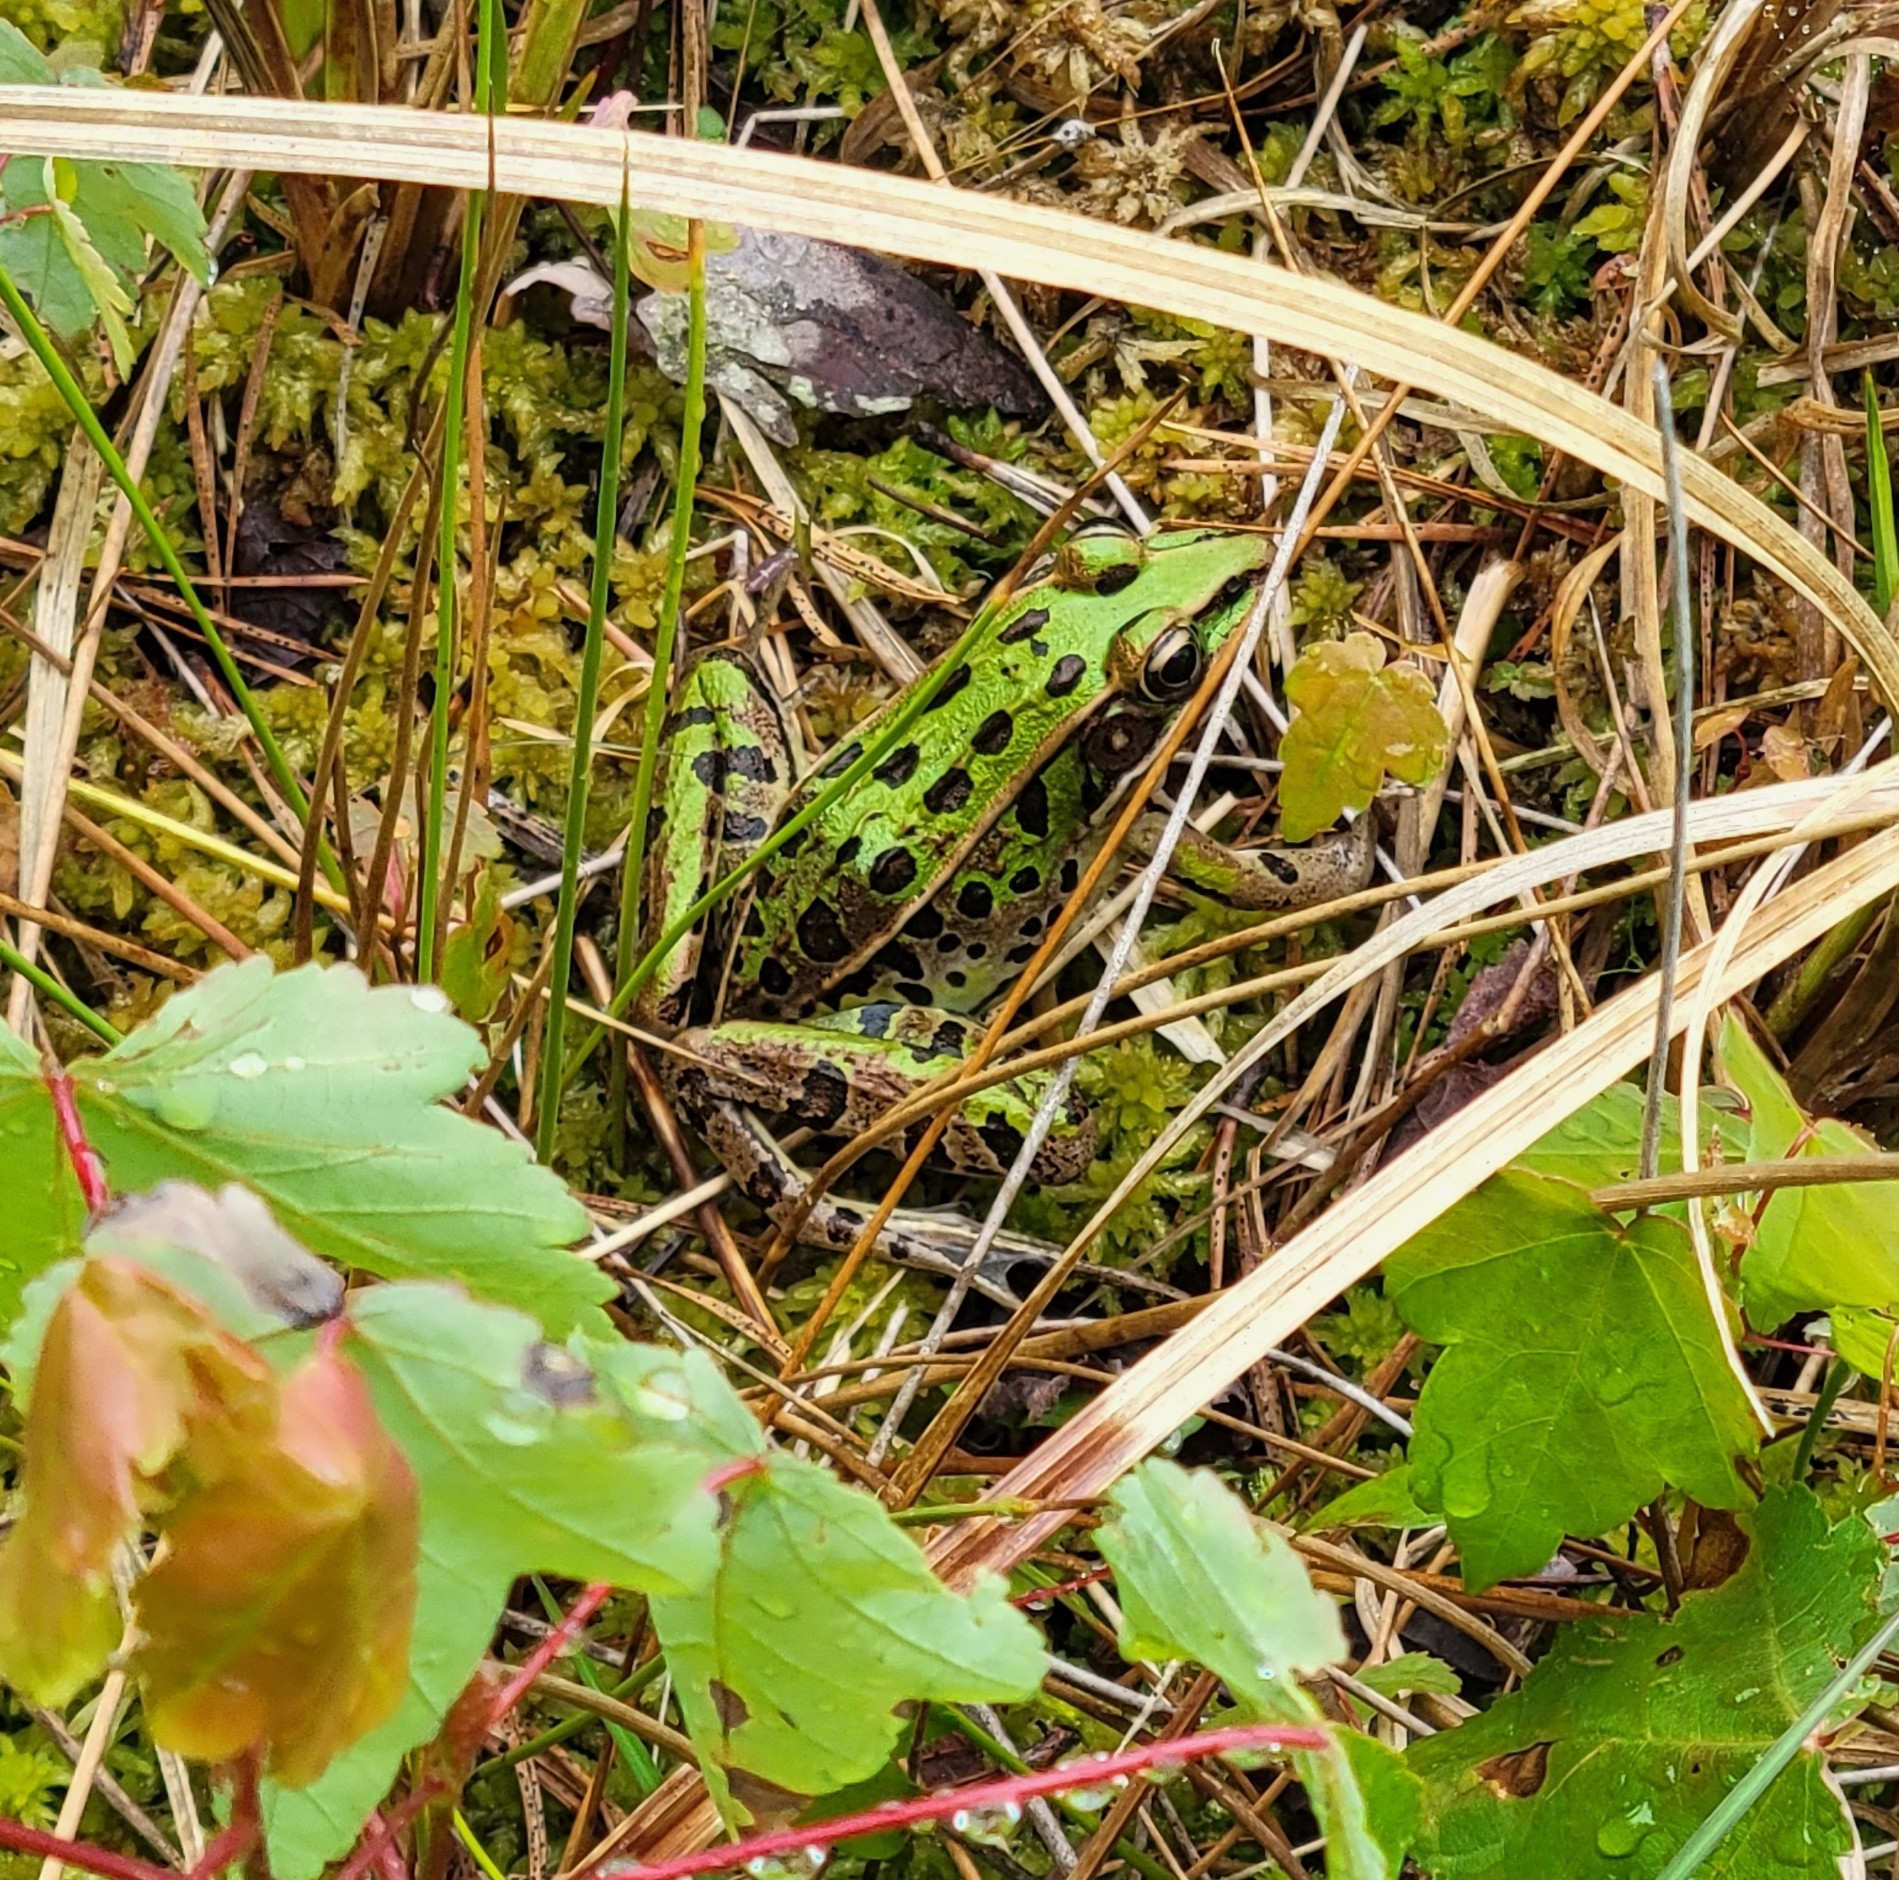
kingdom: Animalia
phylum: Chordata
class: Amphibia
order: Anura
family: Ranidae
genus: Lithobates
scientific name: Lithobates sphenocephalus
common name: Southern leopard frog
